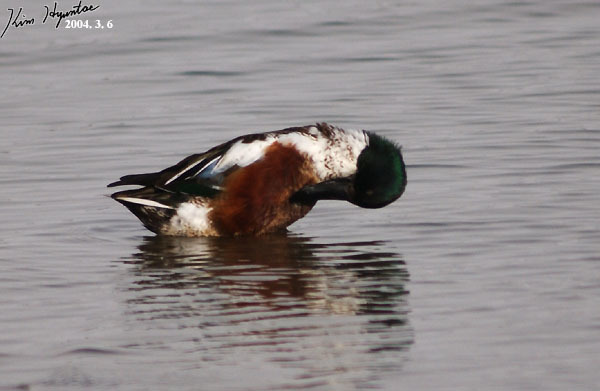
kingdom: Animalia
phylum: Chordata
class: Aves
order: Anseriformes
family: Anatidae
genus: Spatula
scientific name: Spatula clypeata
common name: Northern shoveler
